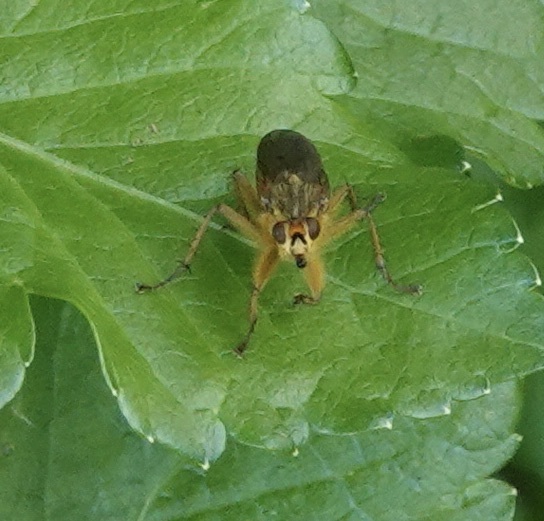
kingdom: Animalia
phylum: Arthropoda
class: Insecta
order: Diptera
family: Scathophagidae
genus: Scathophaga
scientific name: Scathophaga stercoraria
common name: Yellow dung fly
